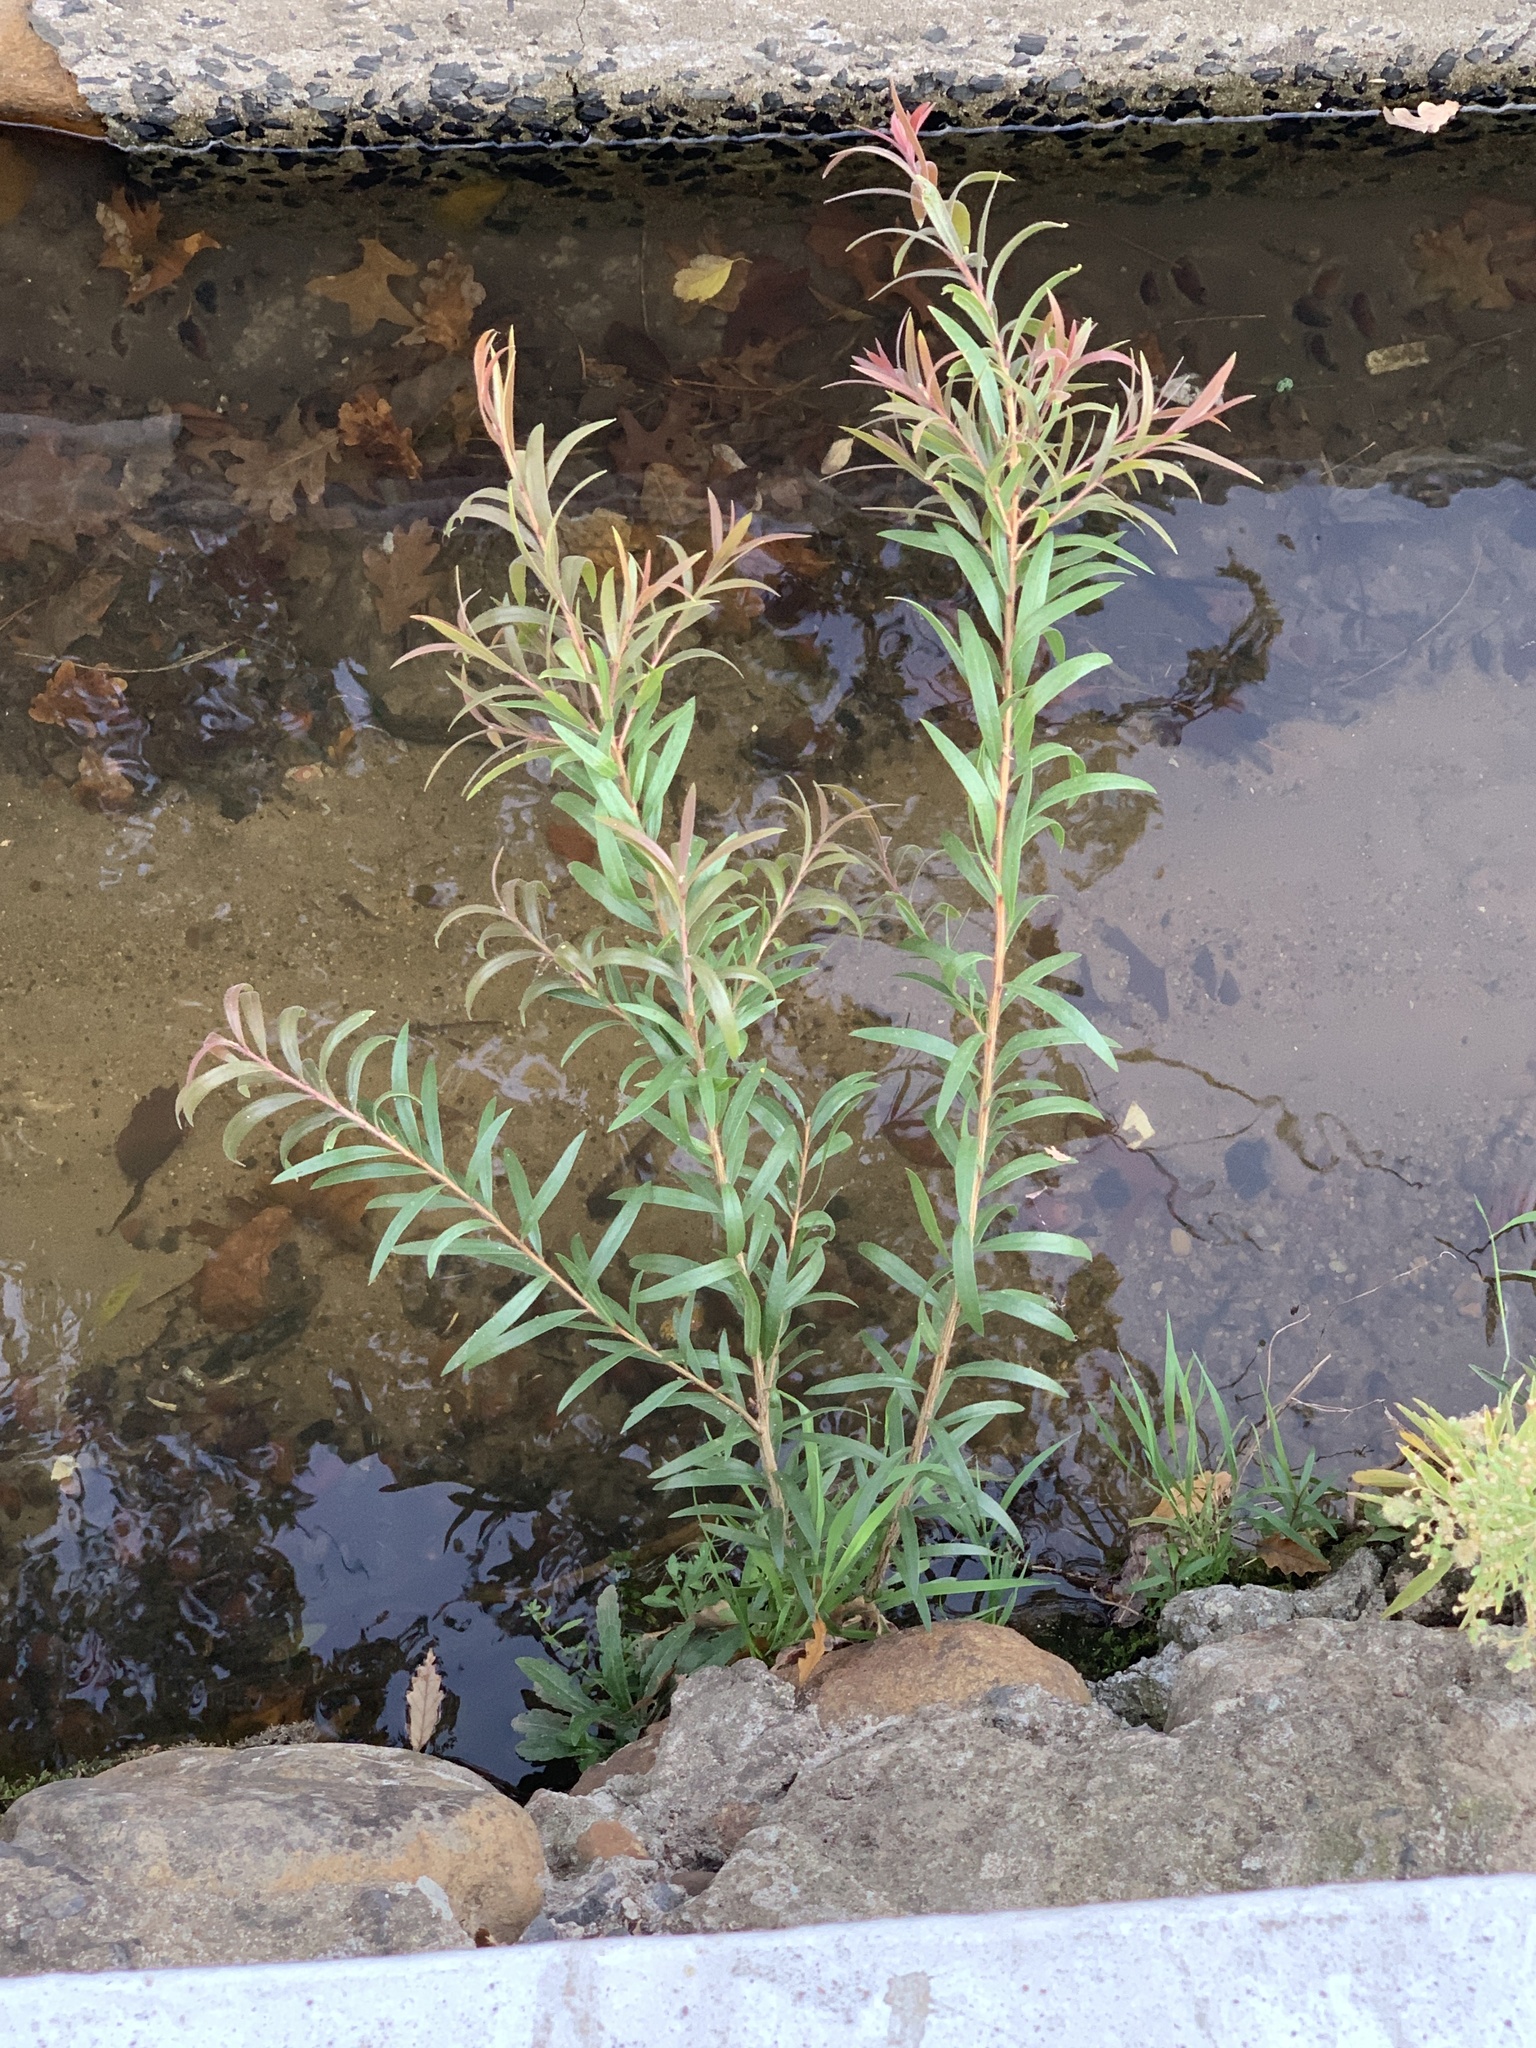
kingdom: Plantae
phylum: Tracheophyta
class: Magnoliopsida
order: Myrtales
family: Myrtaceae
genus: Callistemon
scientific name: Callistemon viminalis
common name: Drooping bottlebrush
